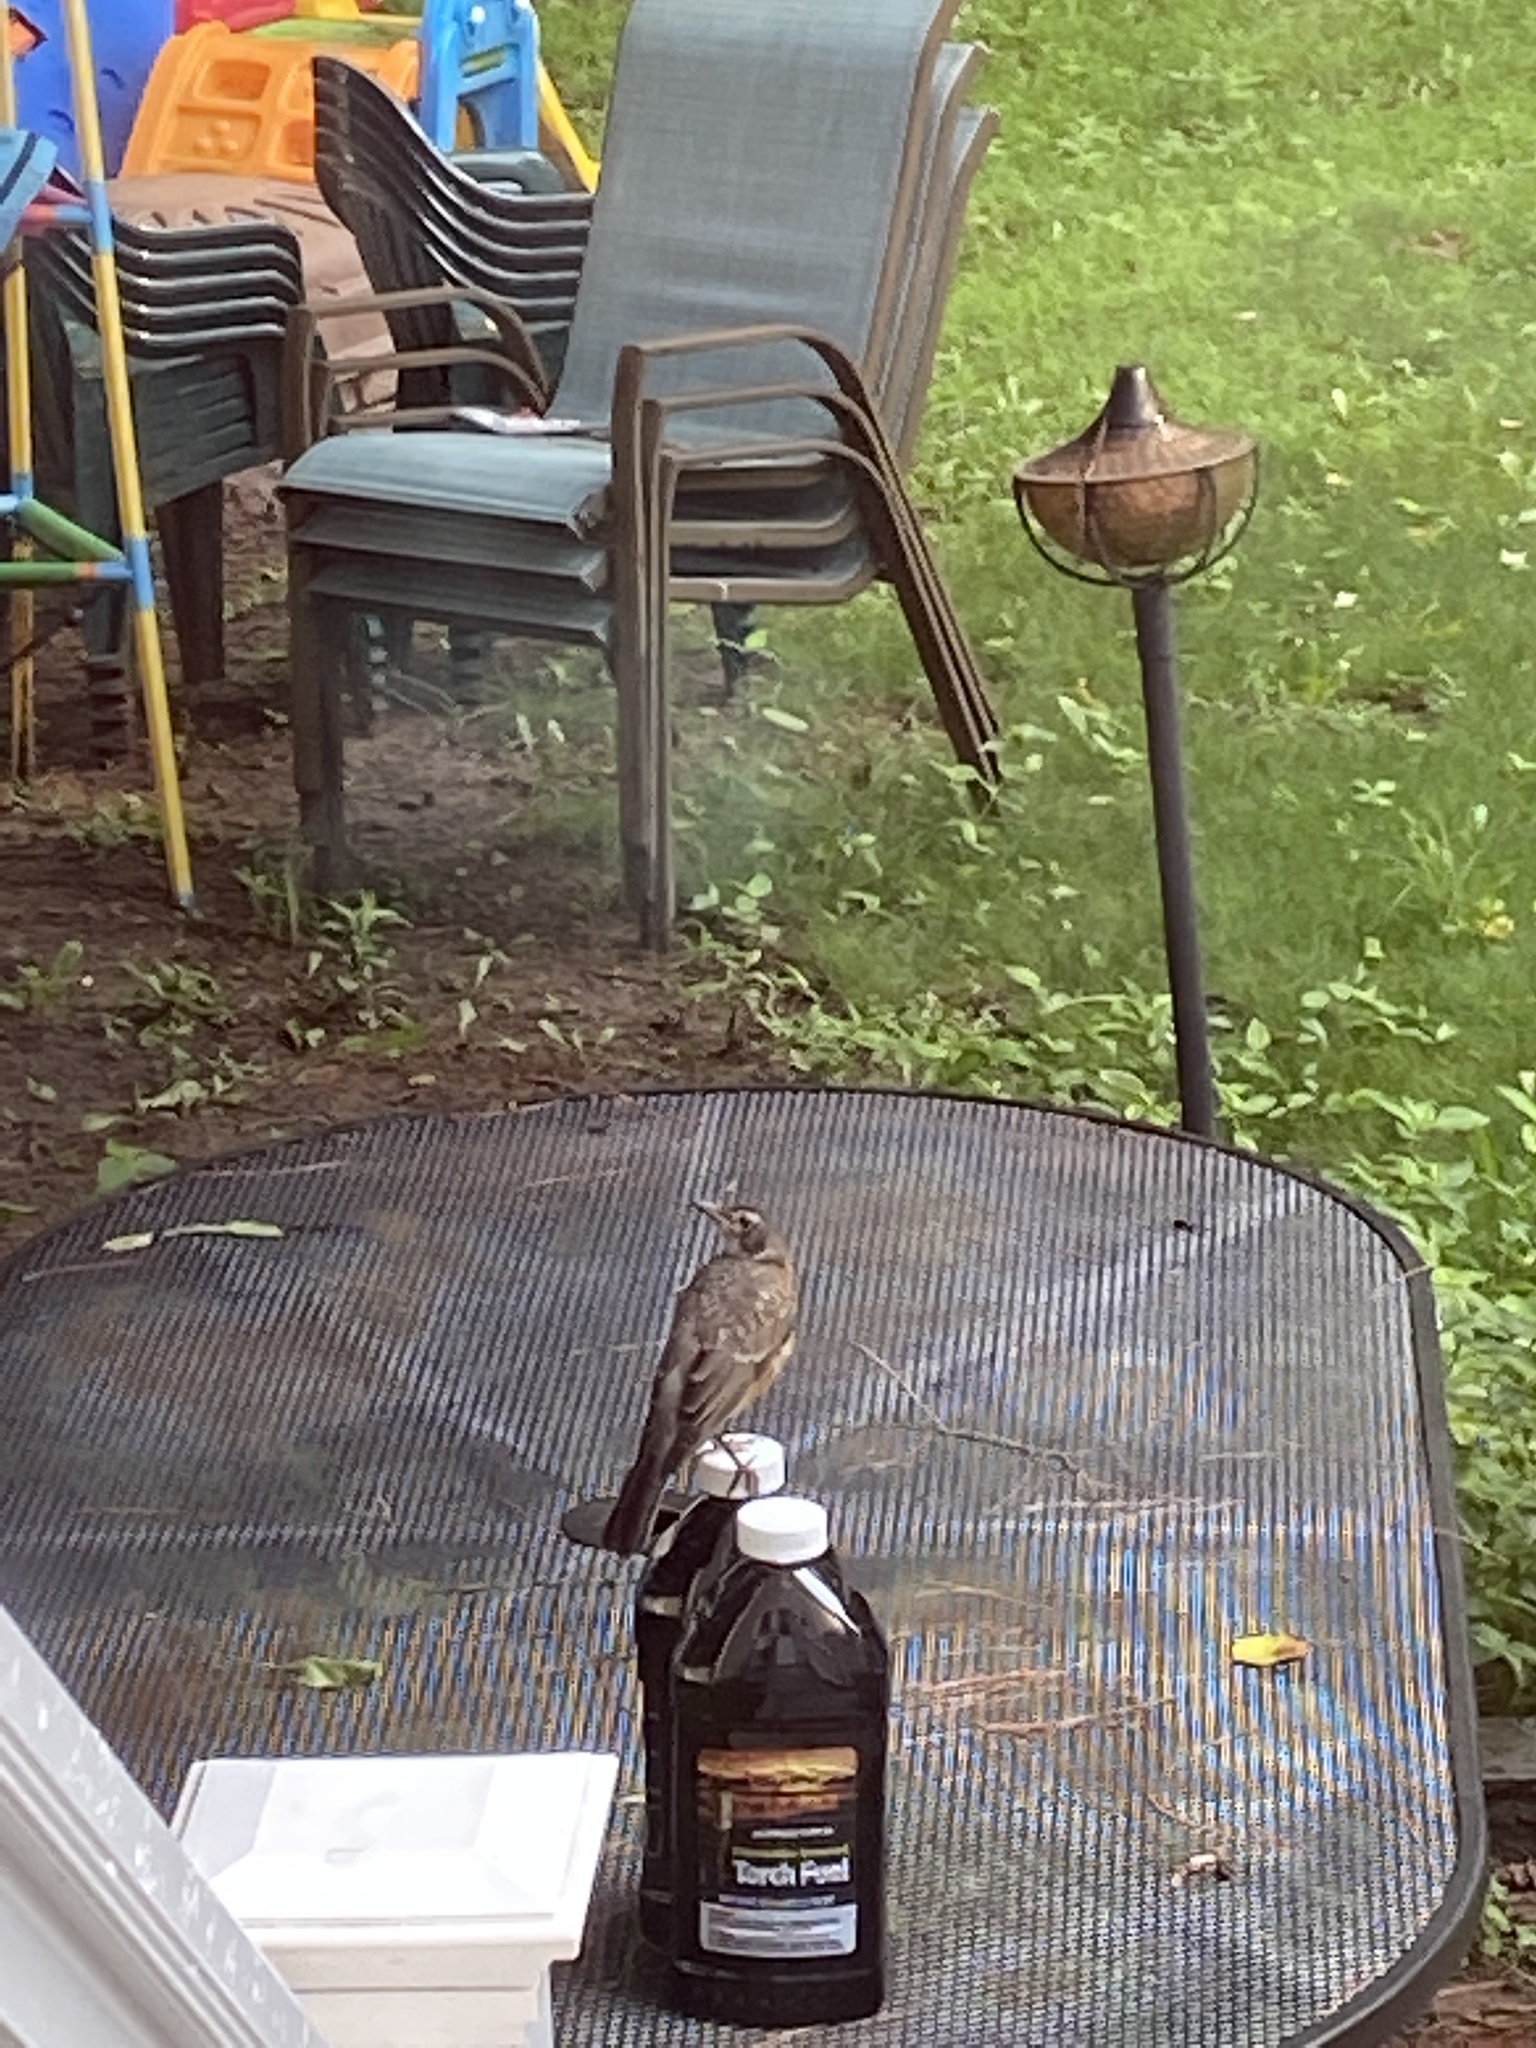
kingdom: Animalia
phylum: Chordata
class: Aves
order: Passeriformes
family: Turdidae
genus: Turdus
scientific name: Turdus migratorius
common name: American robin
